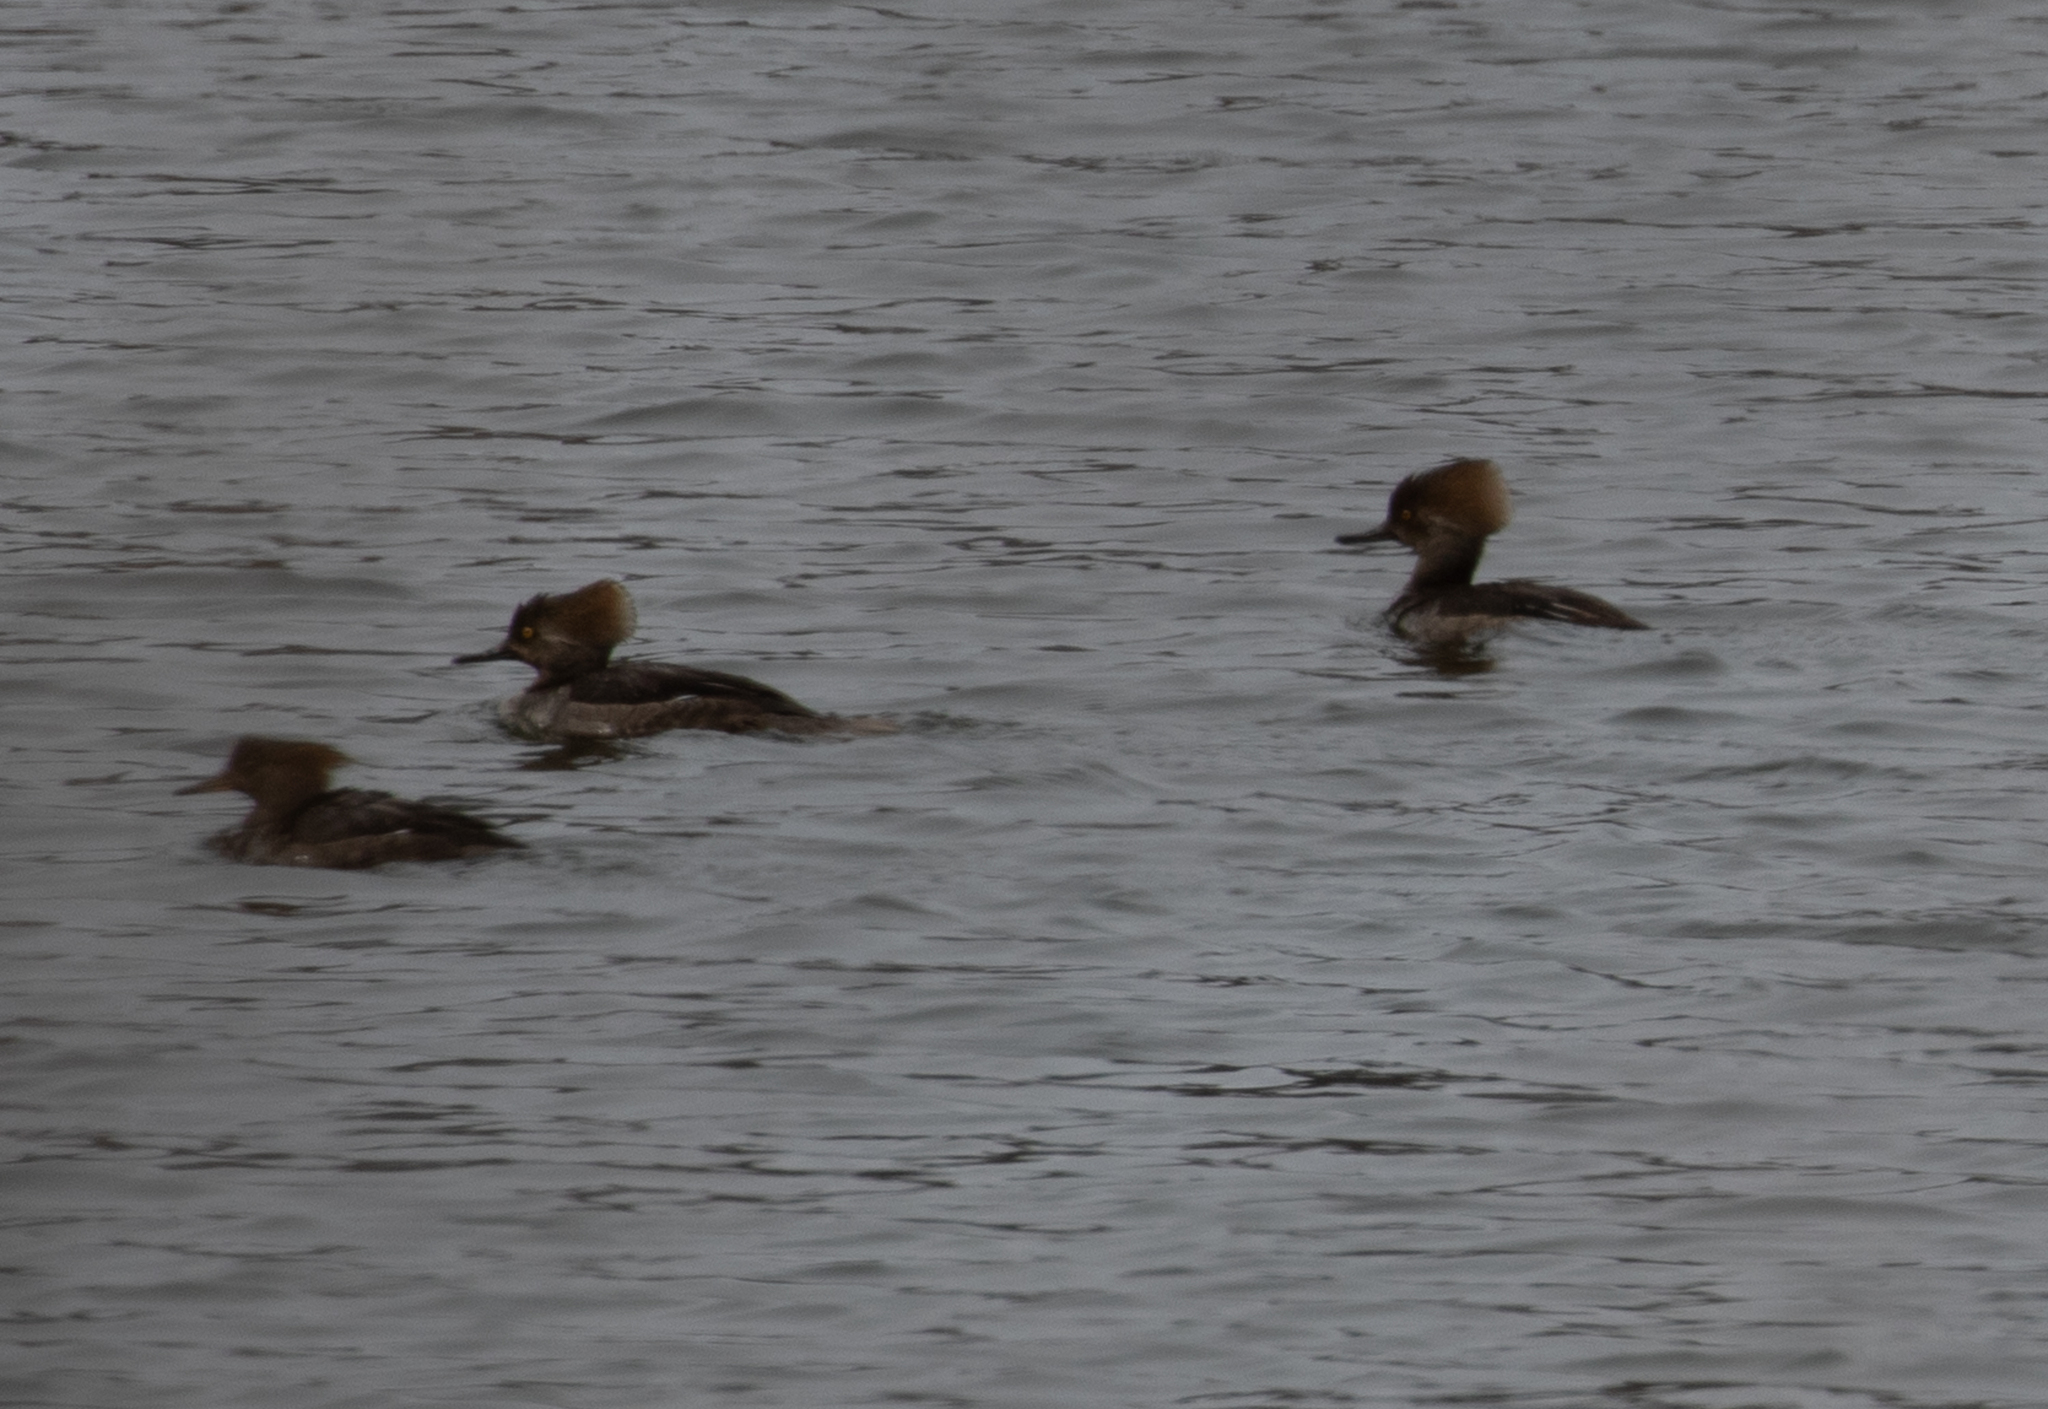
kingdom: Animalia
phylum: Chordata
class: Aves
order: Anseriformes
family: Anatidae
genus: Lophodytes
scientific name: Lophodytes cucullatus
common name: Hooded merganser
